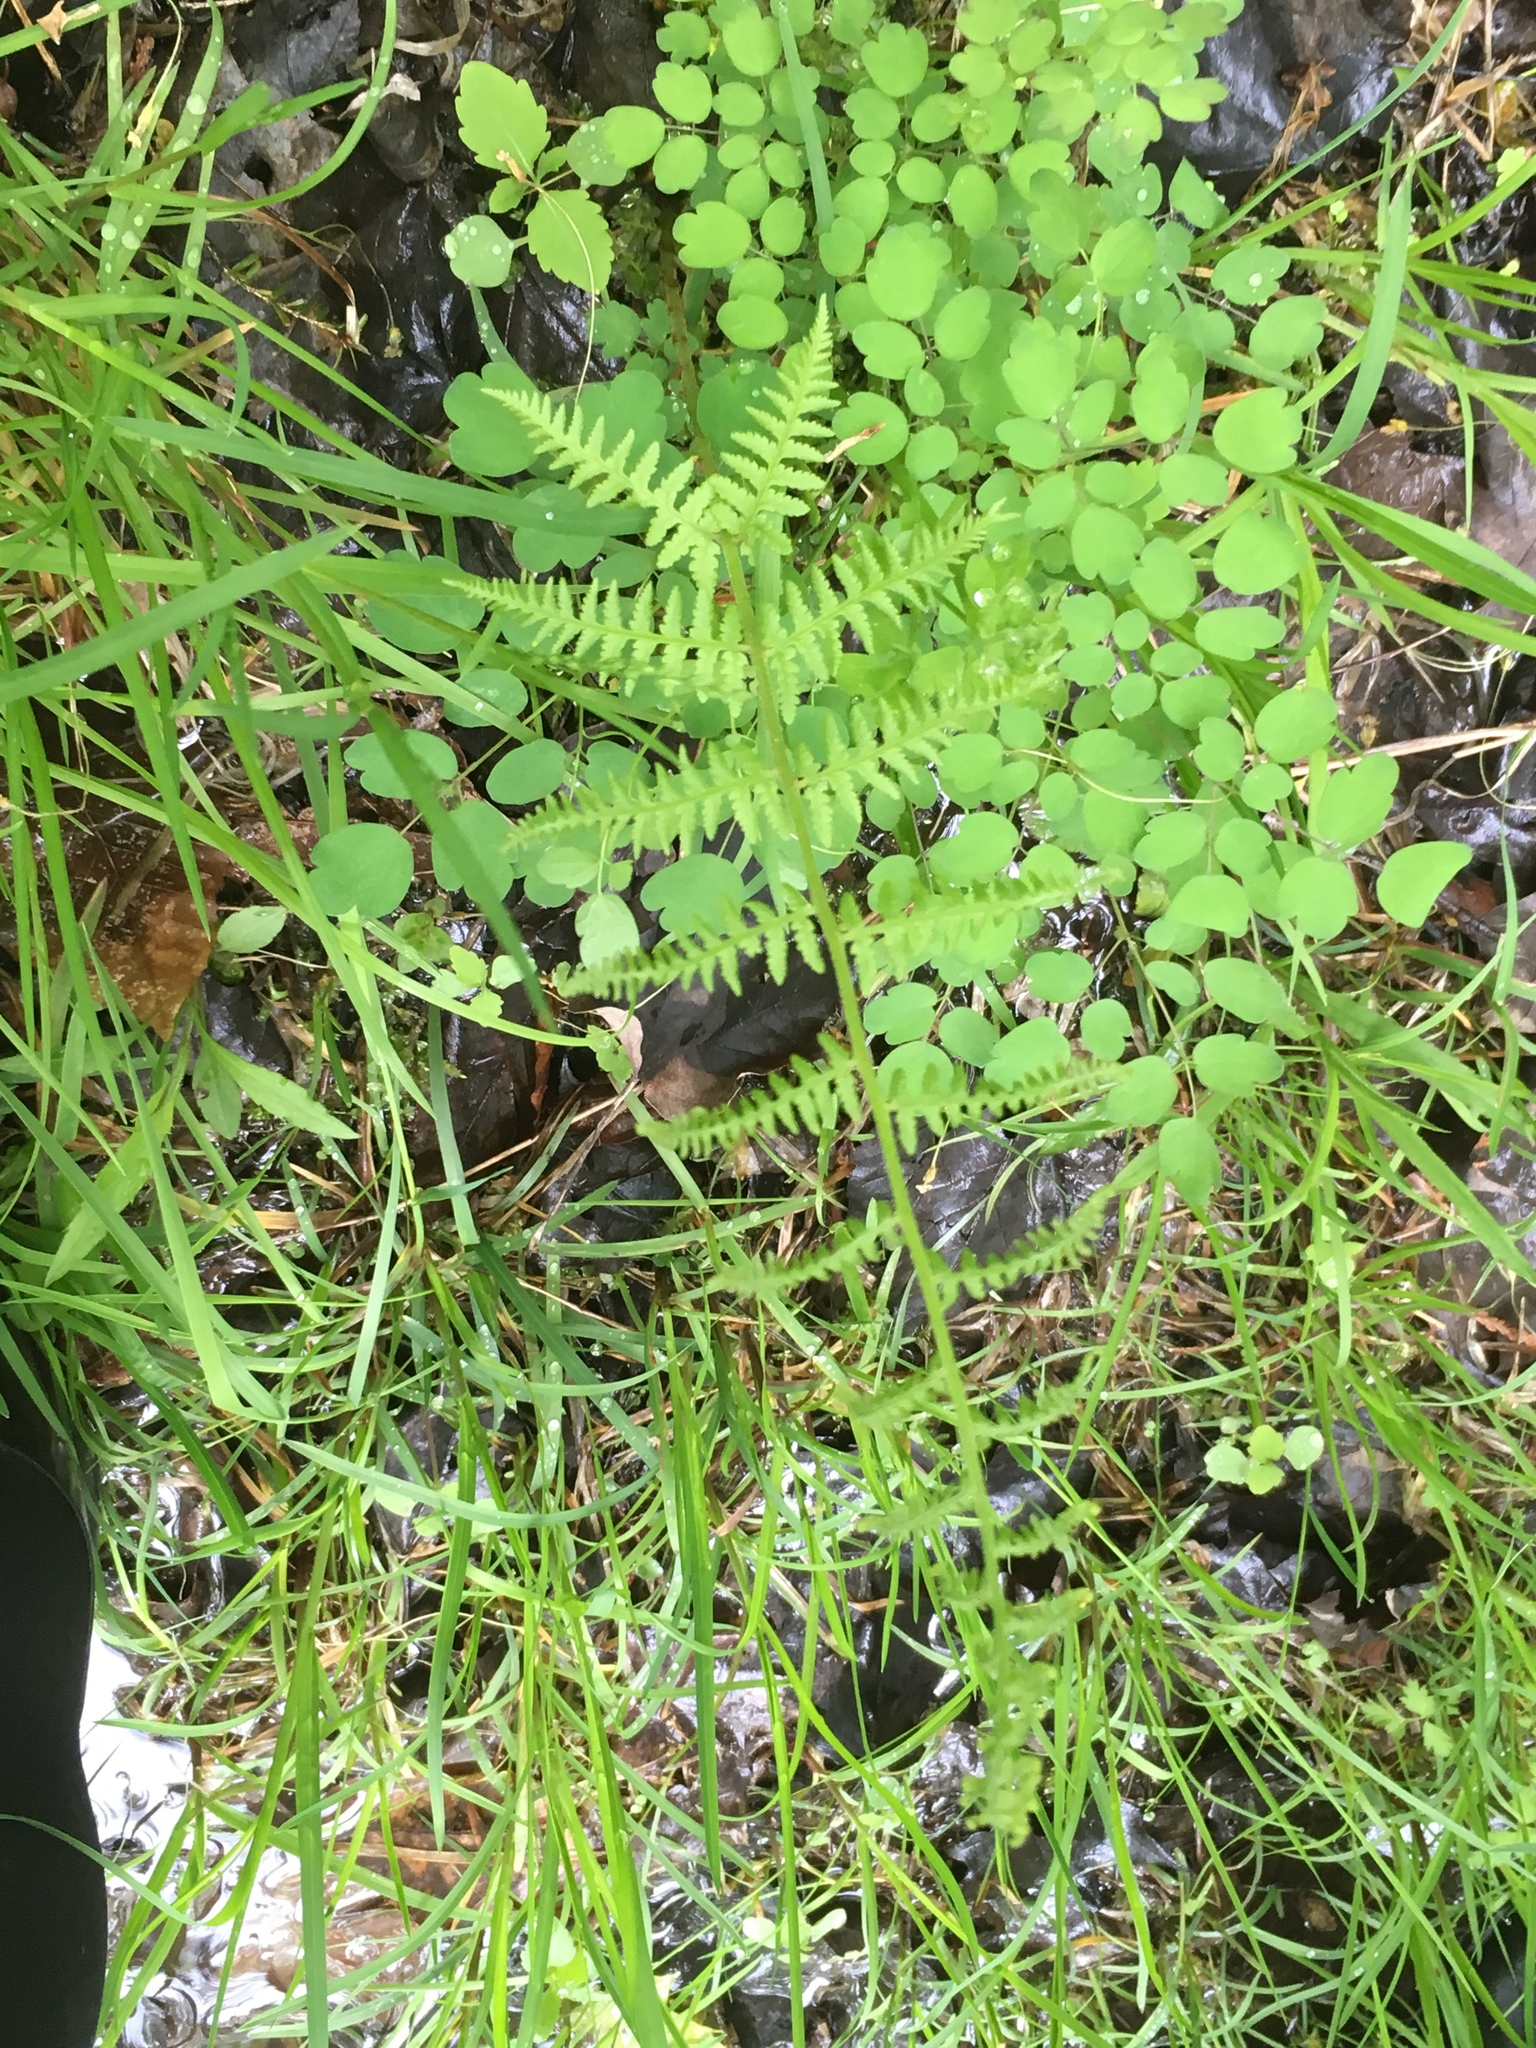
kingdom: Plantae
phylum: Tracheophyta
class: Polypodiopsida
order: Polypodiales
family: Athyriaceae
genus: Athyrium
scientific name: Athyrium angustum
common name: Northern lady fern
